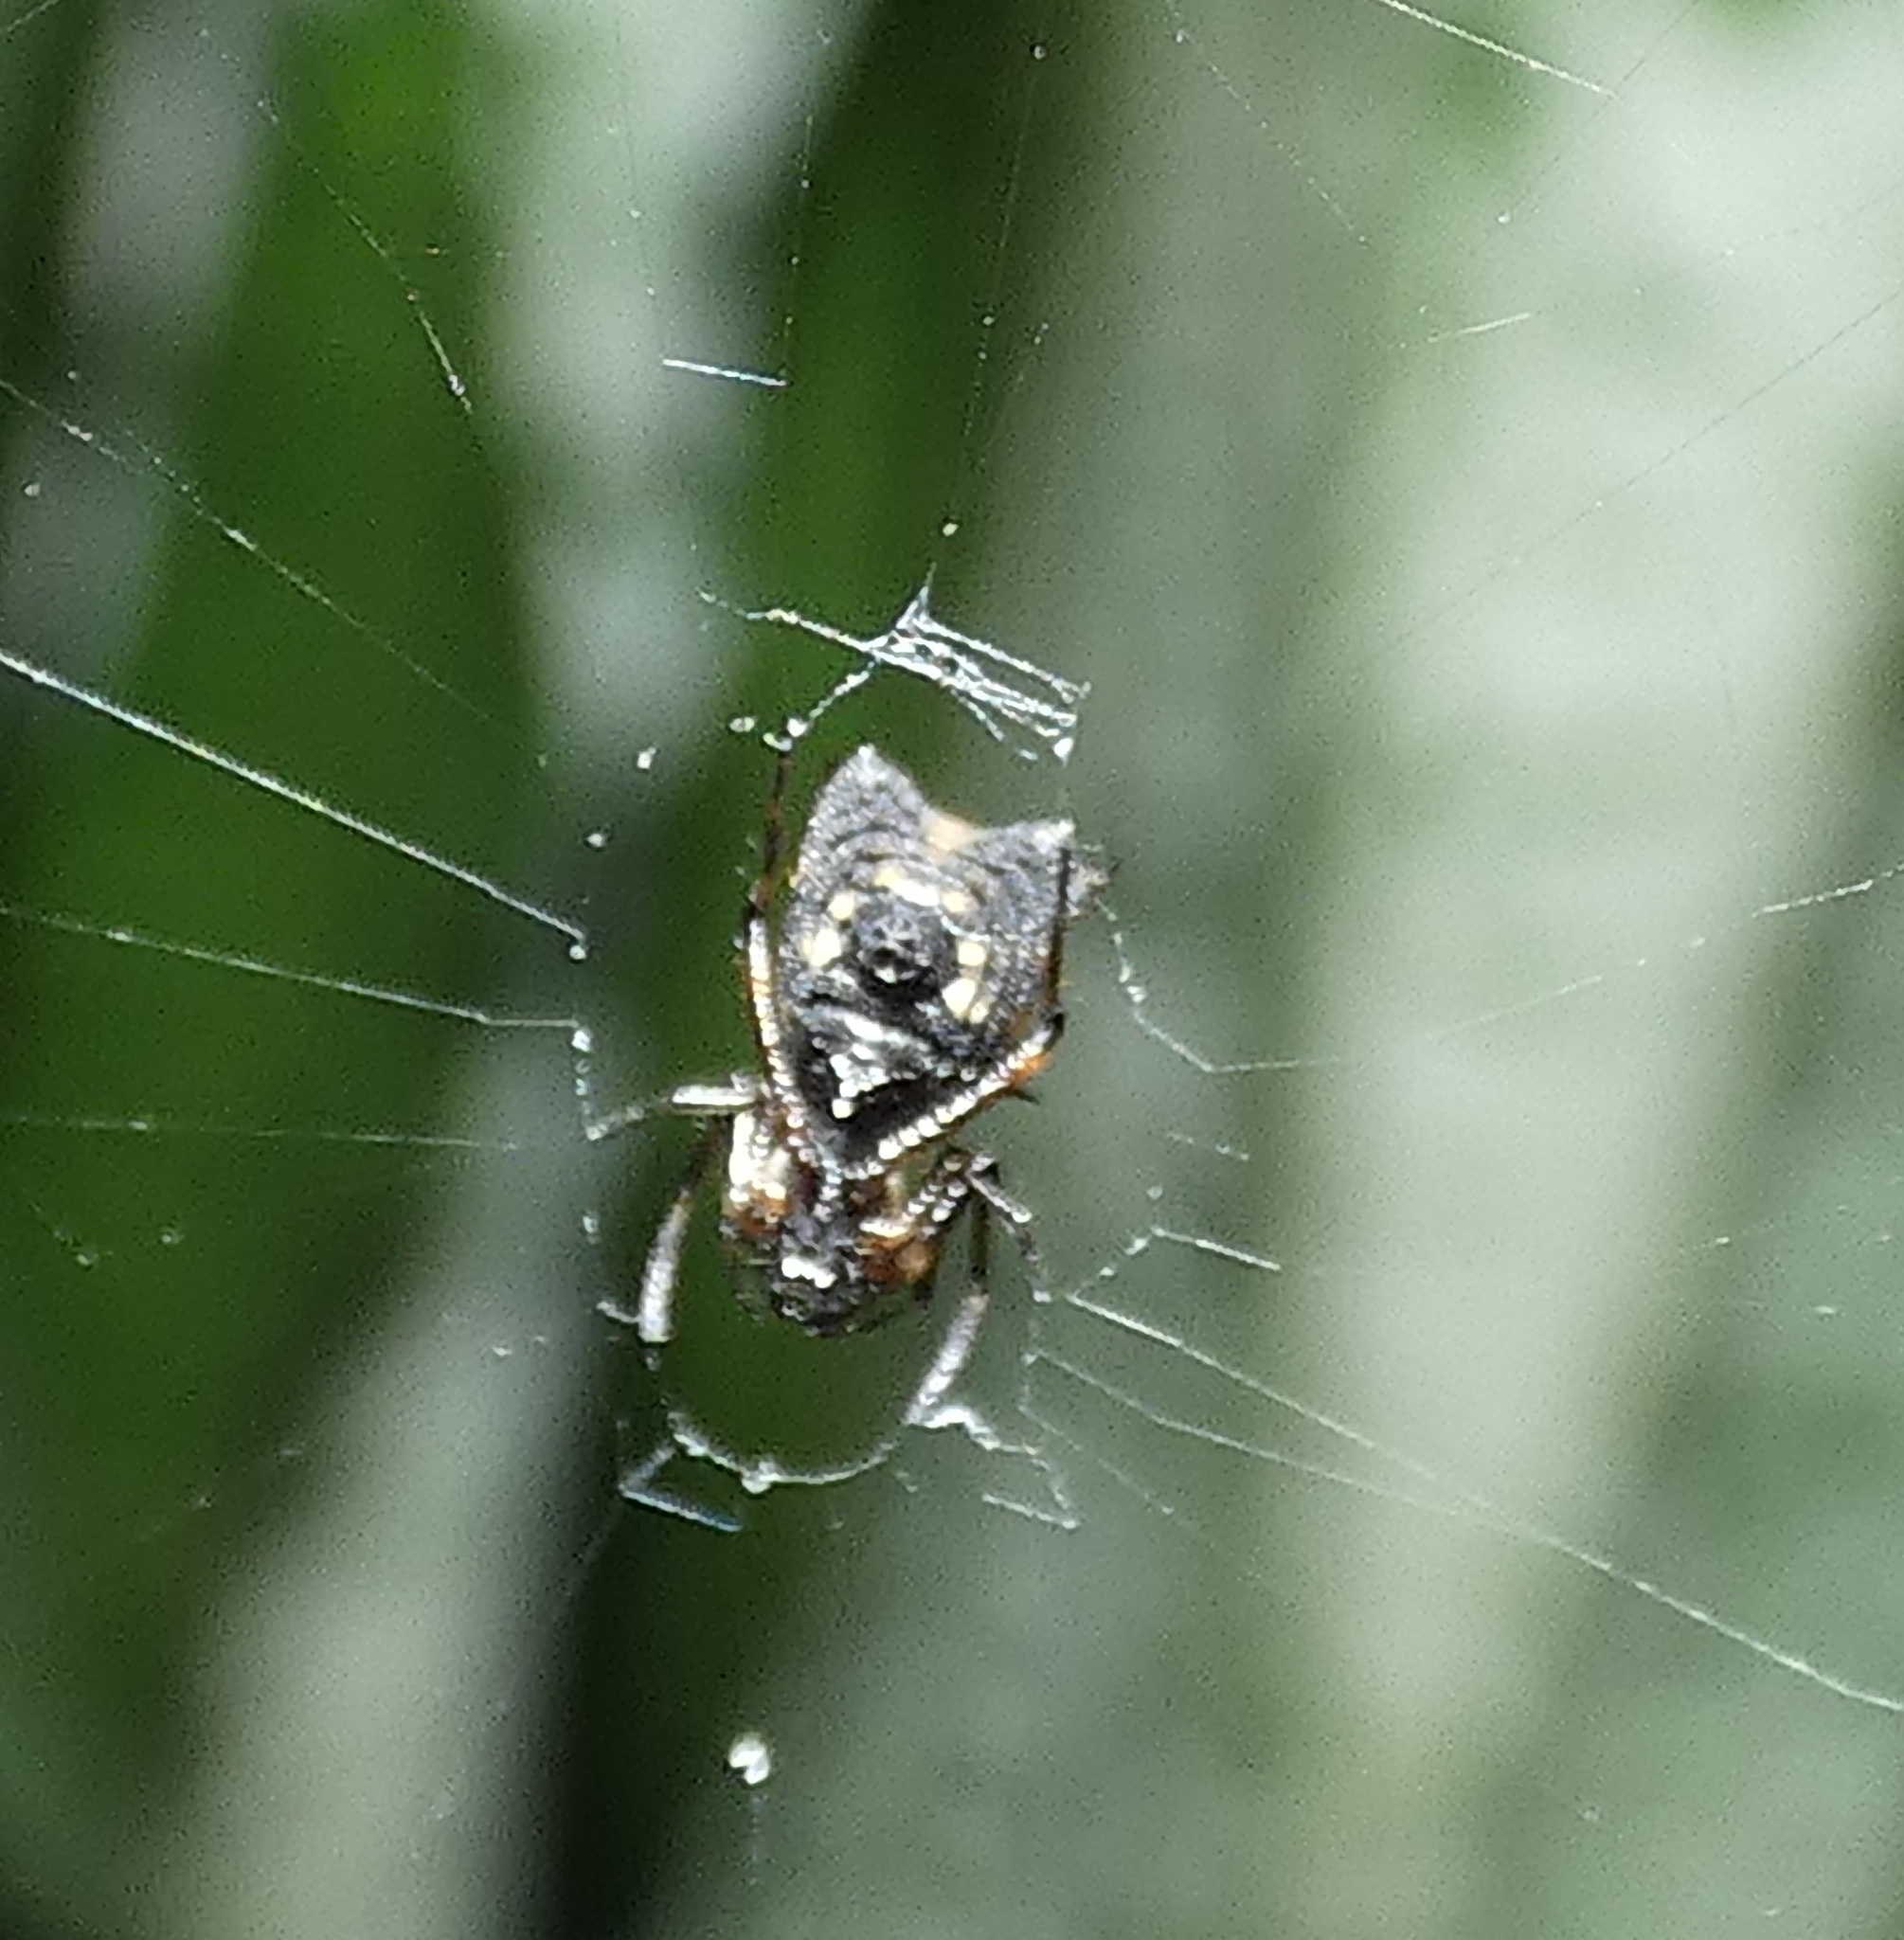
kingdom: Animalia
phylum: Arthropoda
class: Arachnida
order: Araneae
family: Araneidae
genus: Micrathena
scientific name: Micrathena picta
